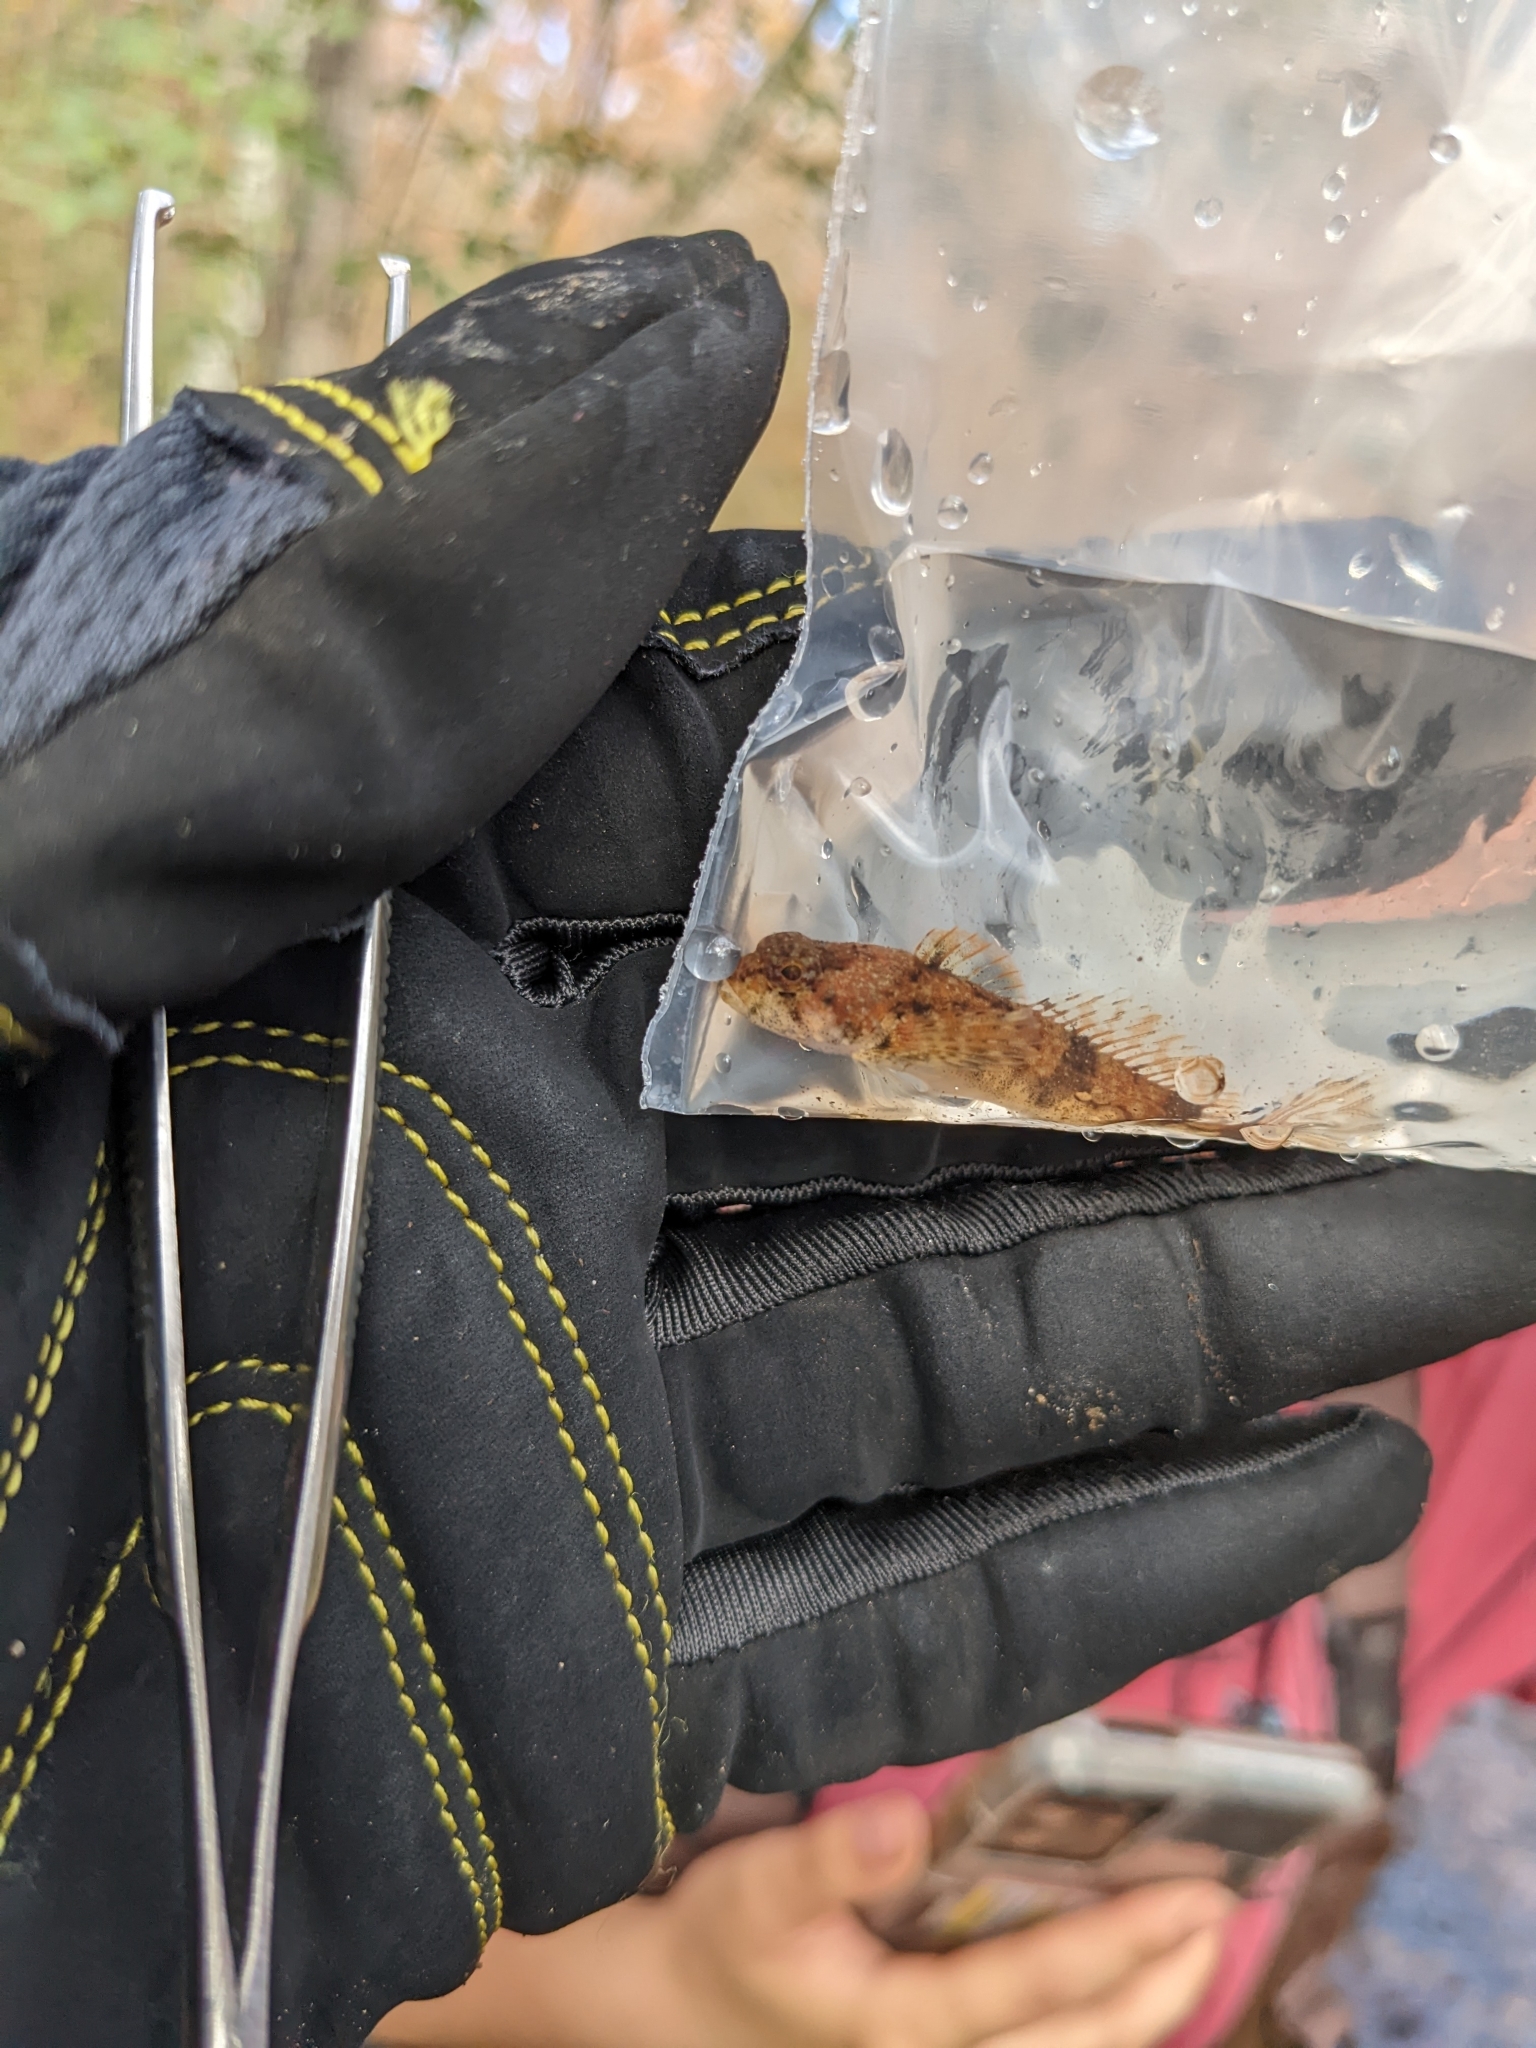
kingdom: Animalia
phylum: Chordata
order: Scorpaeniformes
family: Cottidae
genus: Cottus
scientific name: Cottus carolinae
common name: Banded sculpin
